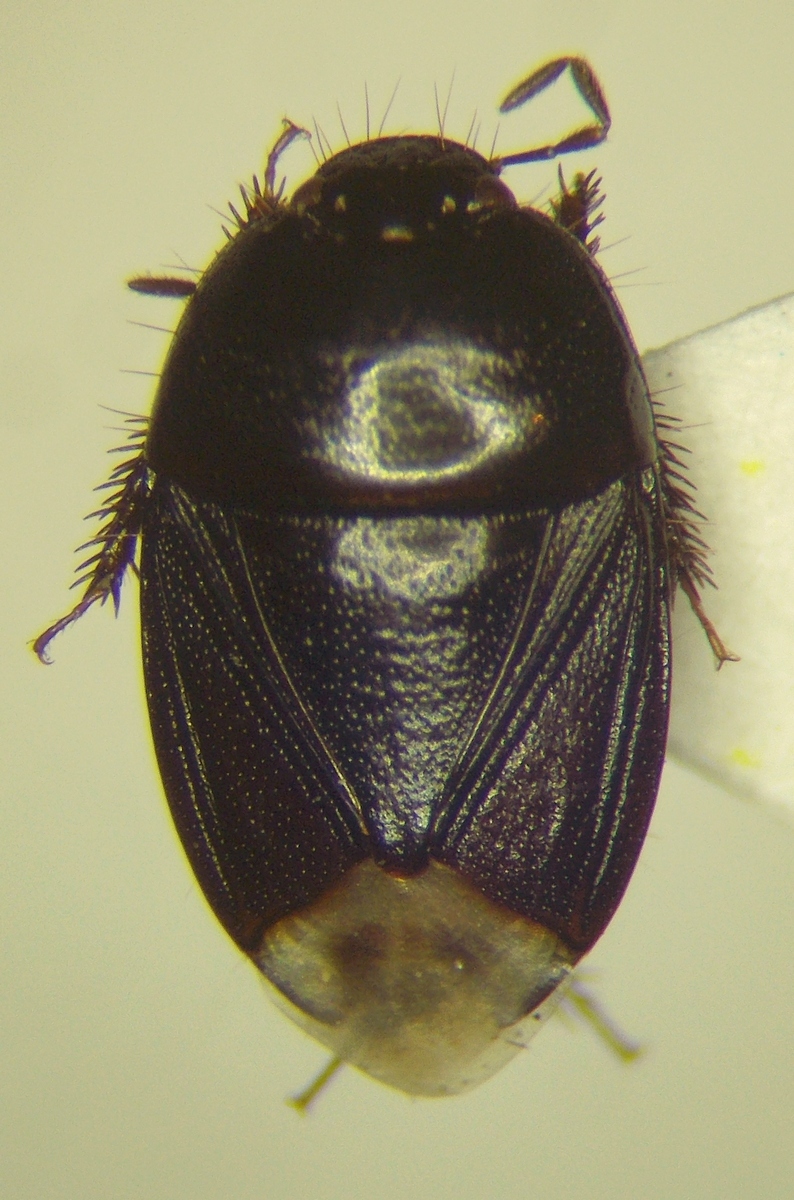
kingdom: Animalia
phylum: Arthropoda
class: Insecta
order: Hemiptera
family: Cydnidae
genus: Geotomus
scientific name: Geotomus brunnipennis
